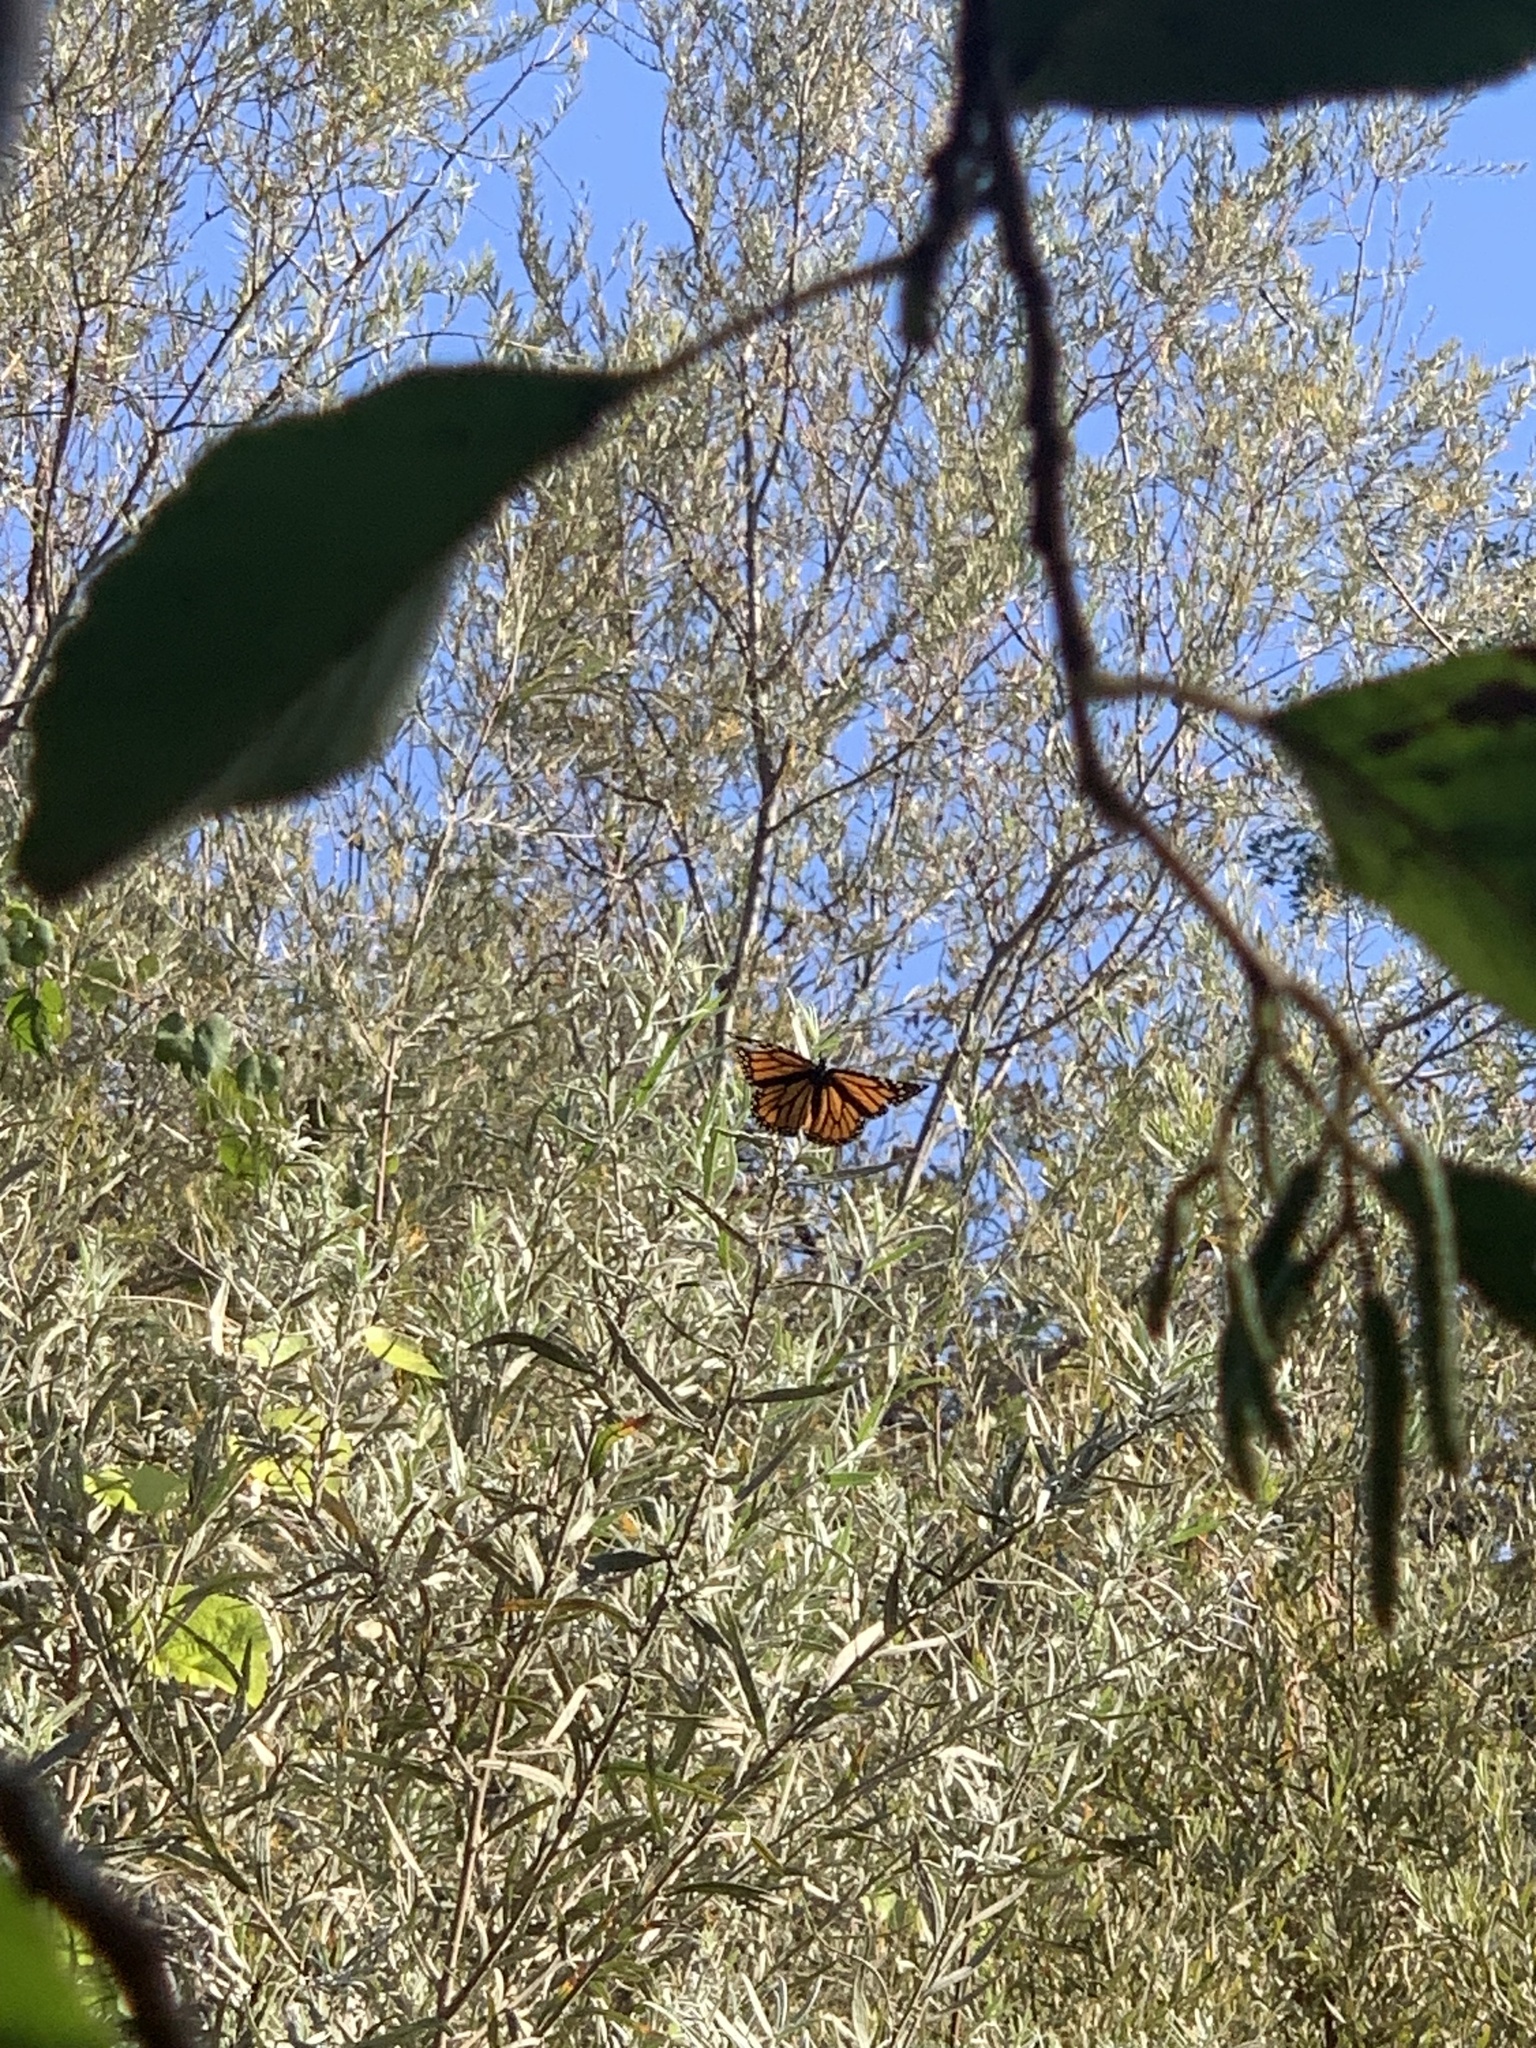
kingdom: Animalia
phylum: Arthropoda
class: Insecta
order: Lepidoptera
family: Nymphalidae
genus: Danaus
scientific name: Danaus plexippus
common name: Monarch
